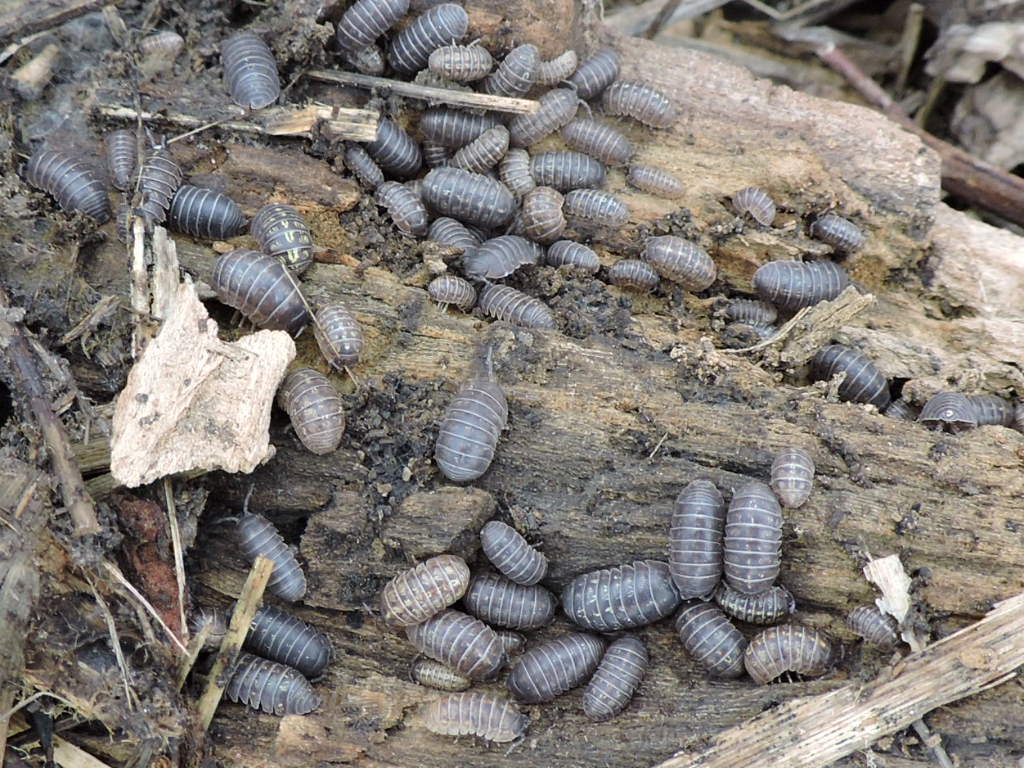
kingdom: Animalia
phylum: Arthropoda
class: Malacostraca
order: Isopoda
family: Armadillidiidae
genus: Armadillidium
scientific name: Armadillidium vulgare
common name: Common pill woodlouse
